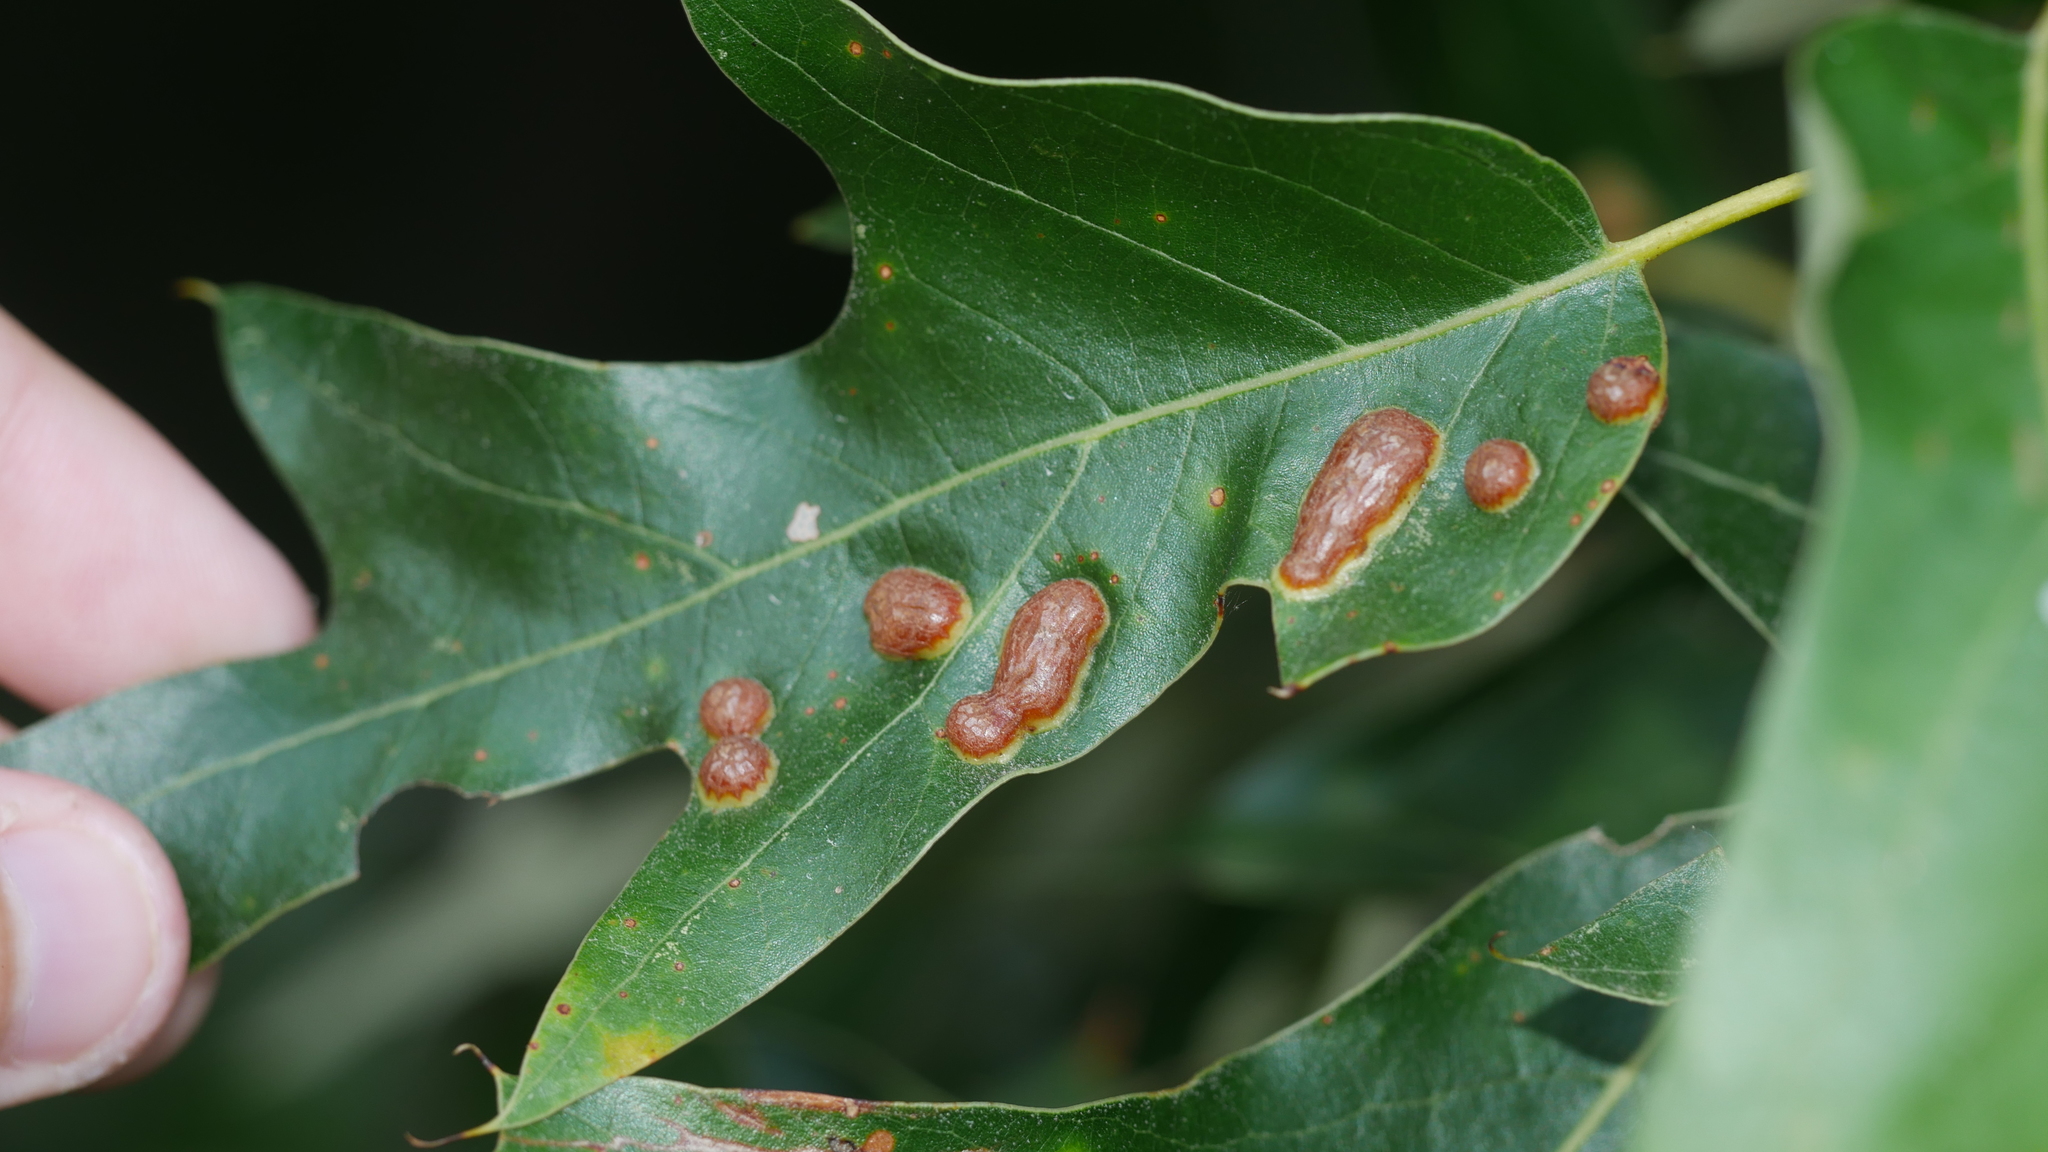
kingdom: Animalia
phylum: Arthropoda
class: Insecta
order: Diptera
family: Cecidomyiidae
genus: Polystepha
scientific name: Polystepha symmetrica
